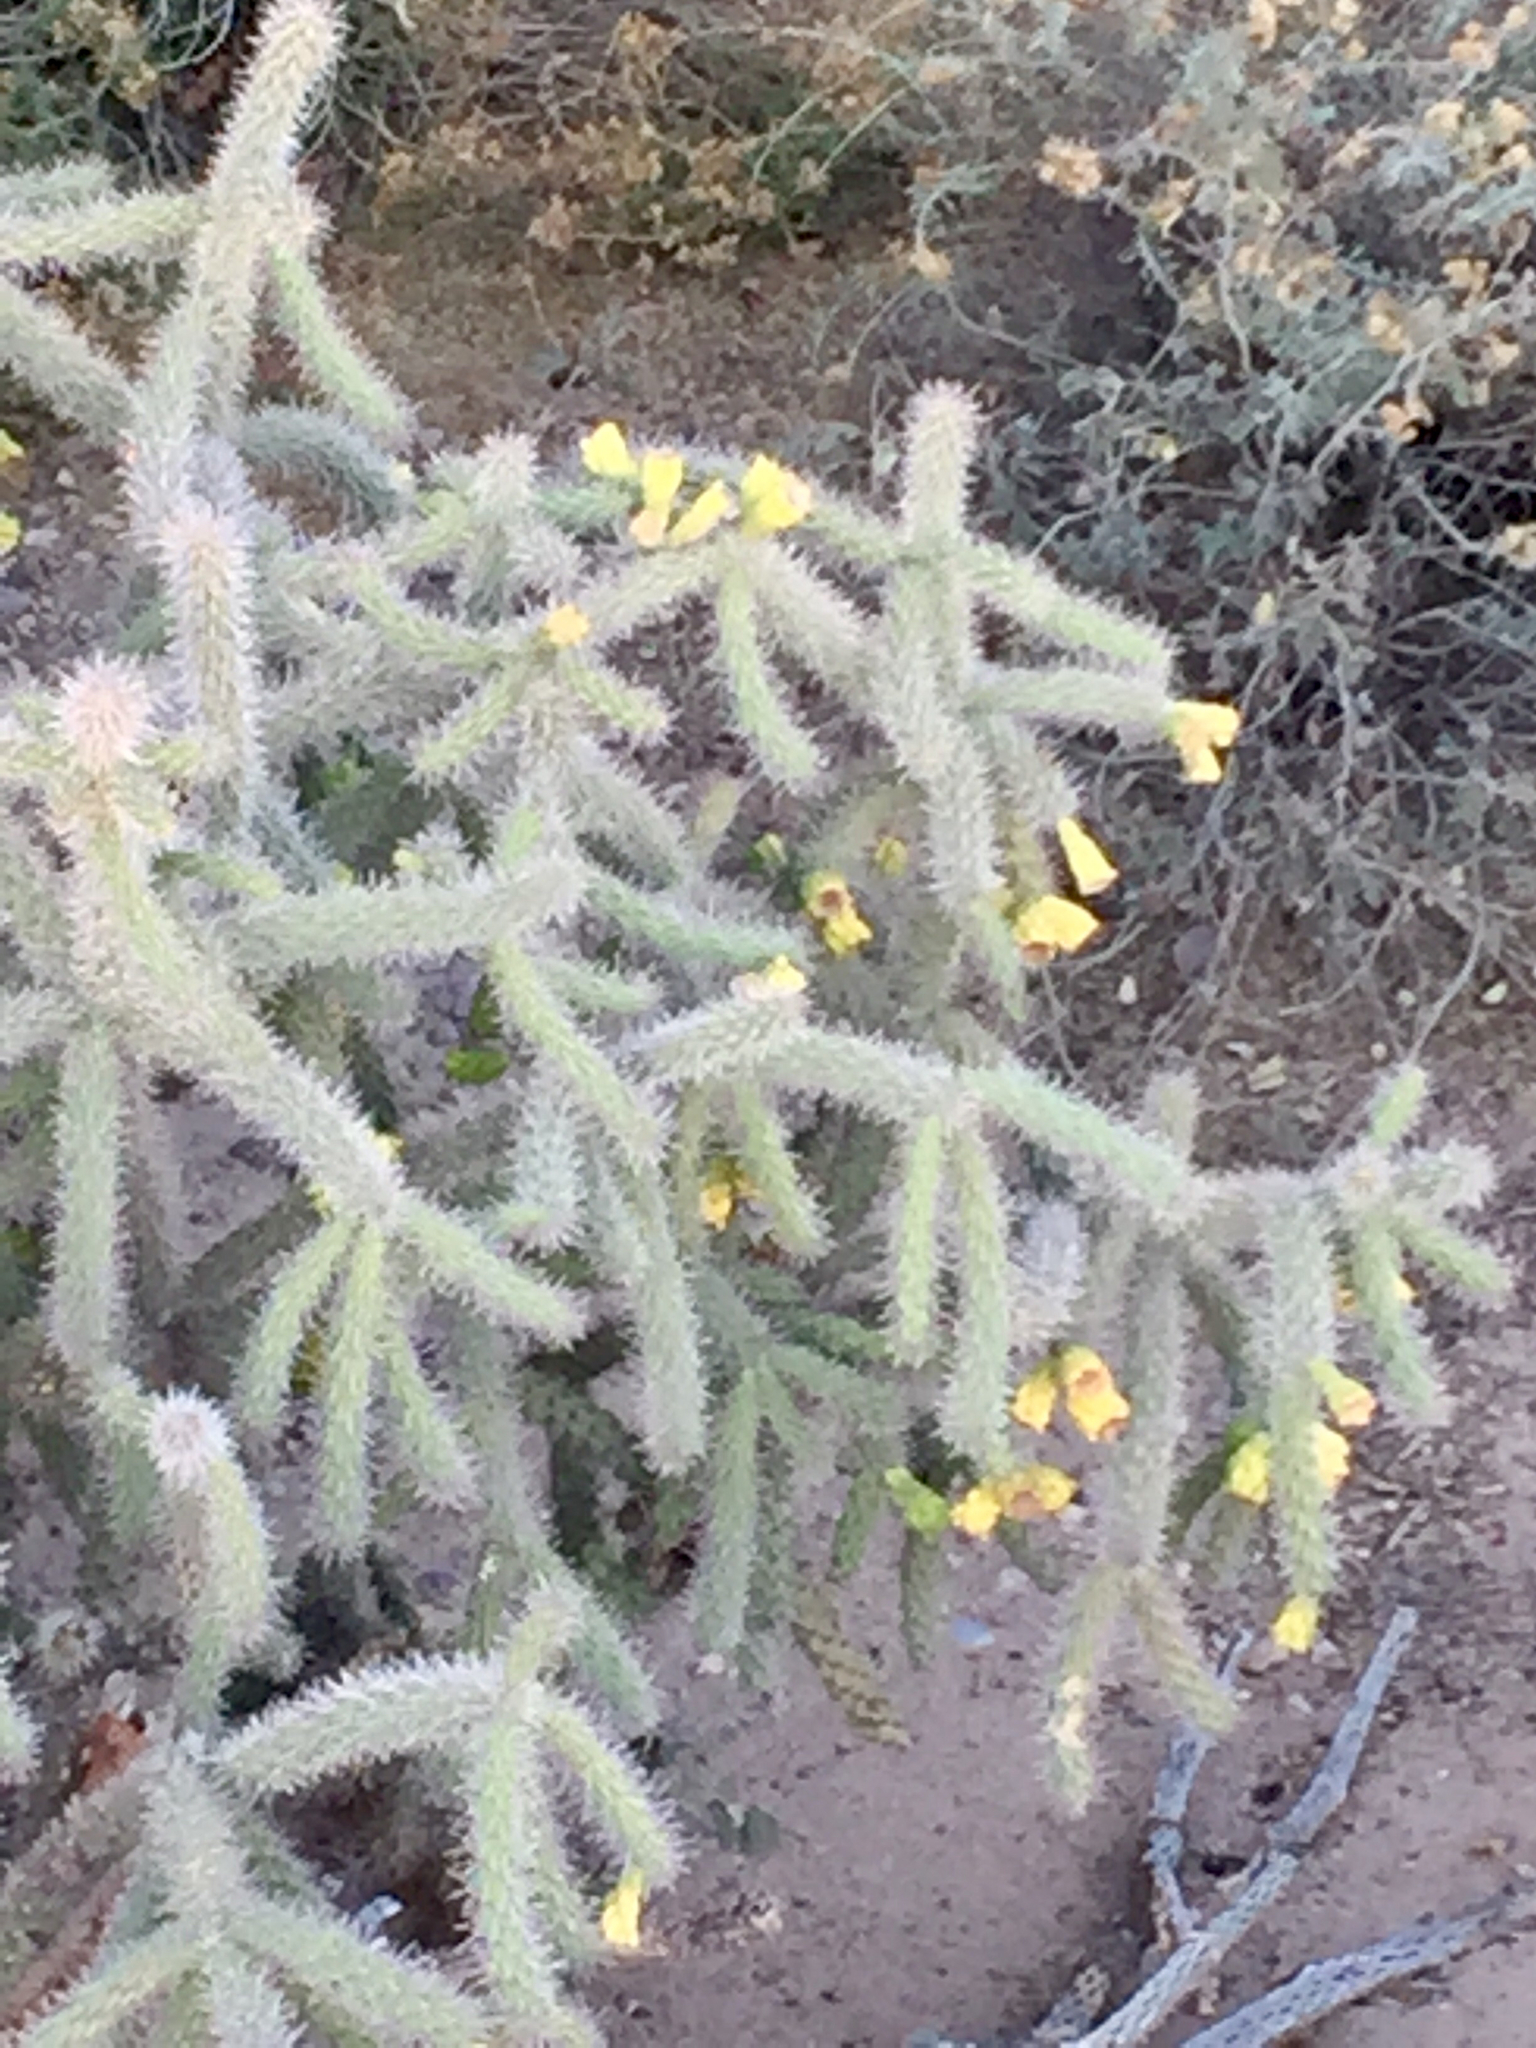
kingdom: Plantae
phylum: Tracheophyta
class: Magnoliopsida
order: Caryophyllales
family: Cactaceae
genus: Cylindropuntia
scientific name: Cylindropuntia imbricata
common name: Candelabrum cactus
